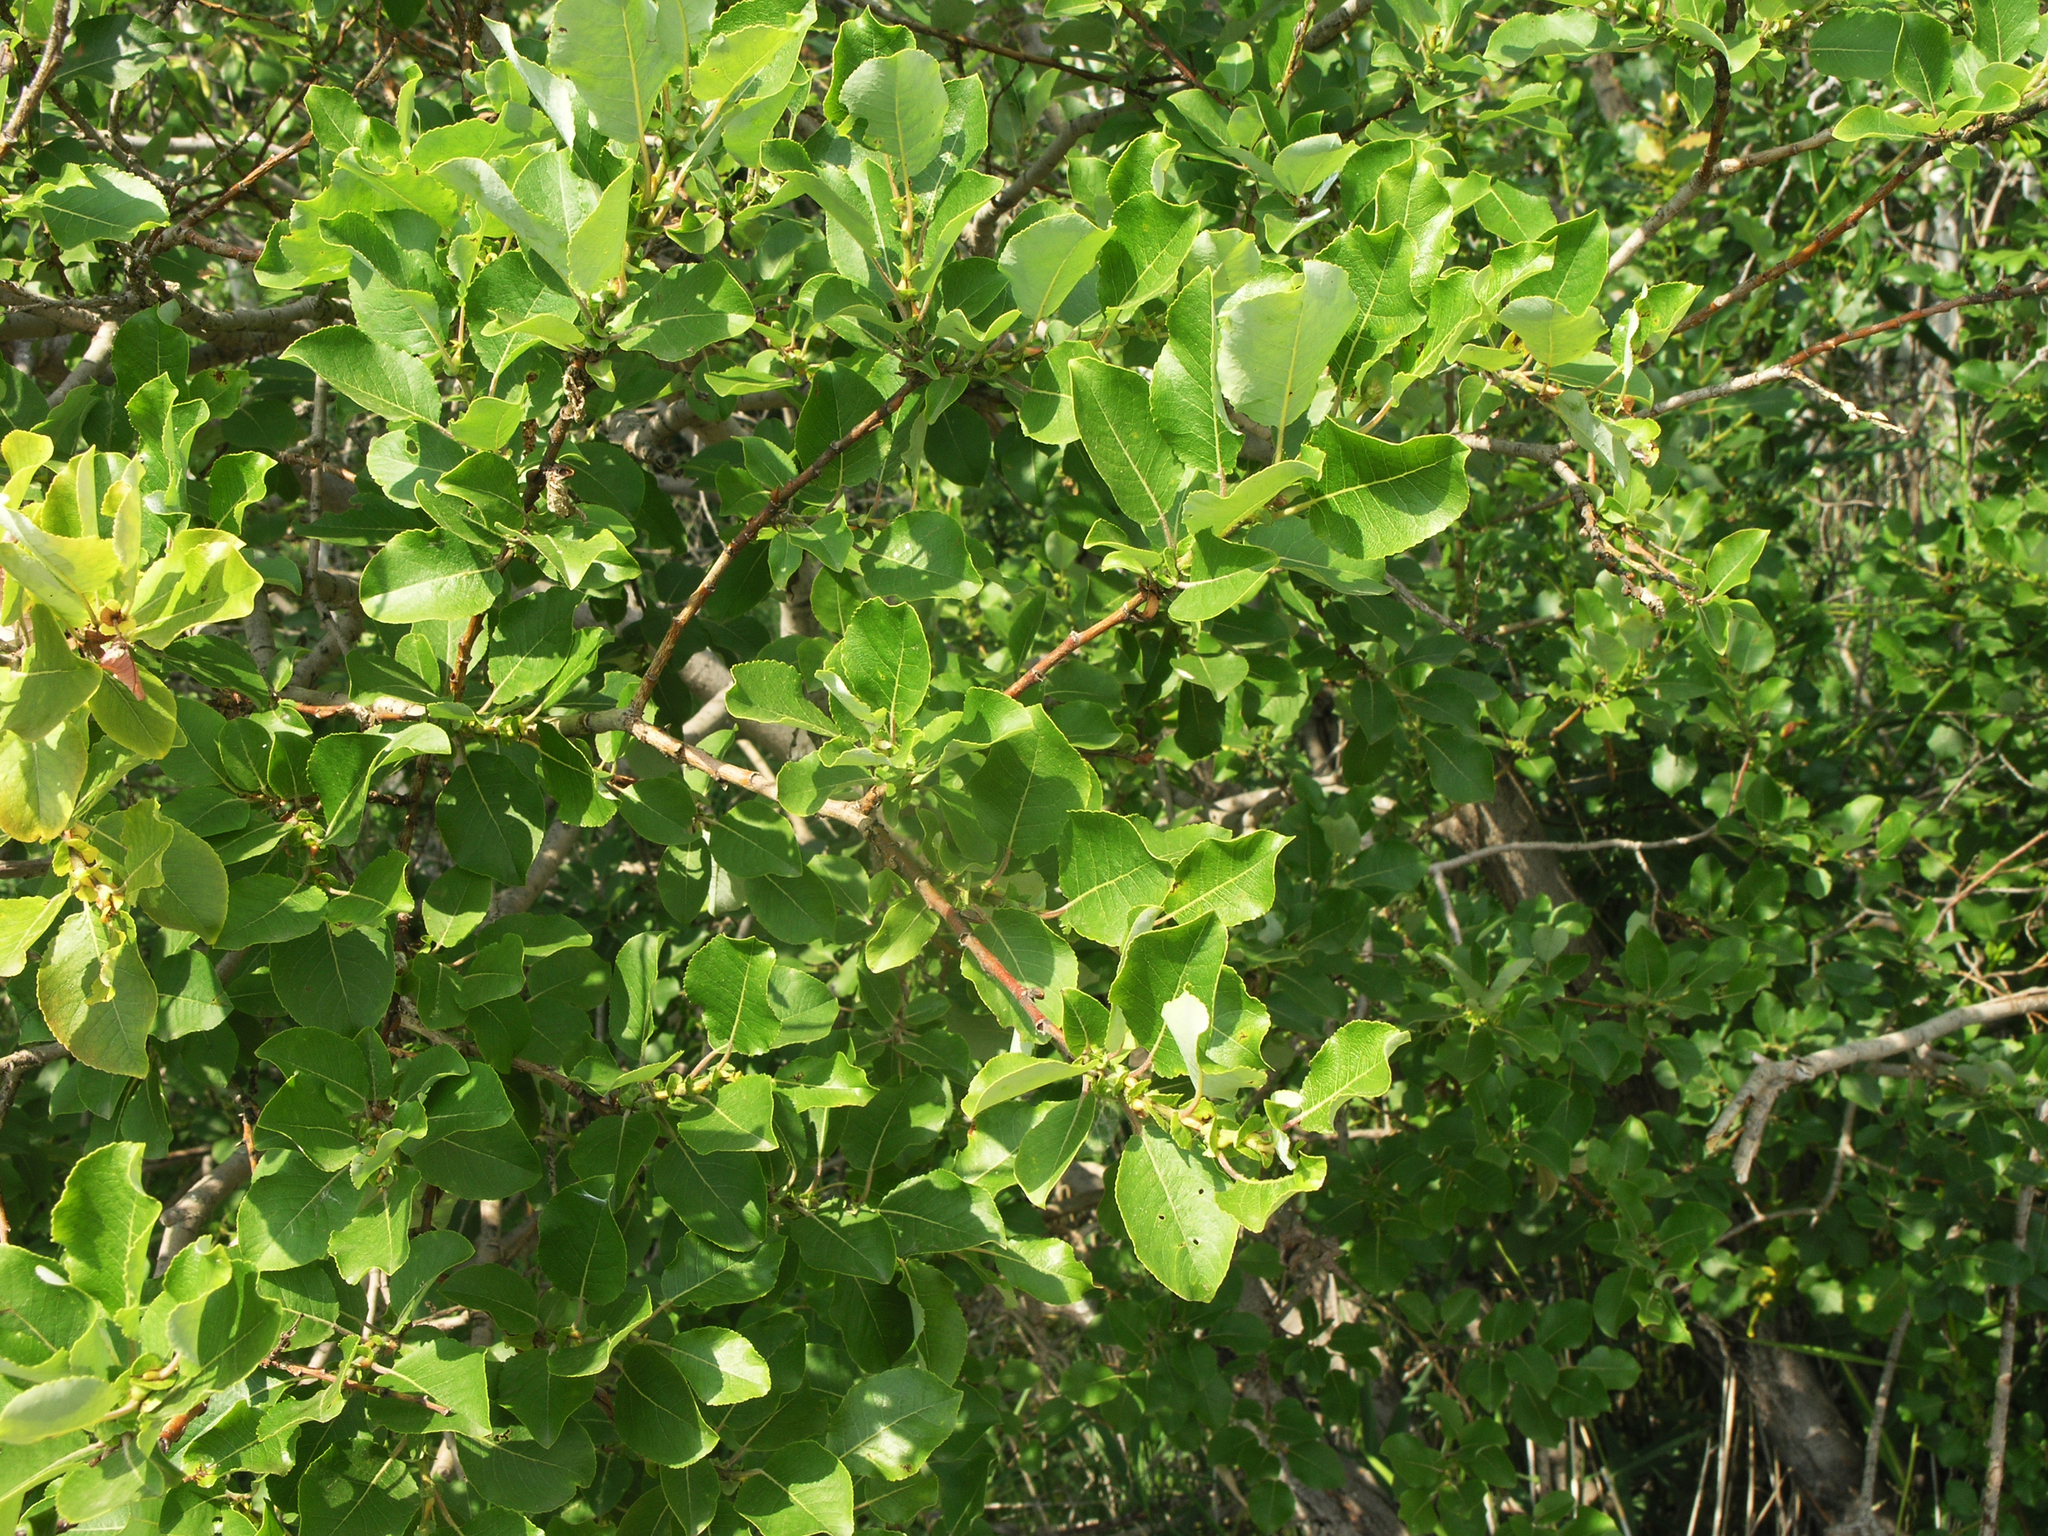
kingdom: Plantae
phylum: Tracheophyta
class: Magnoliopsida
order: Malpighiales
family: Salicaceae
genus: Salix
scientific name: Salix pyrolifolia
